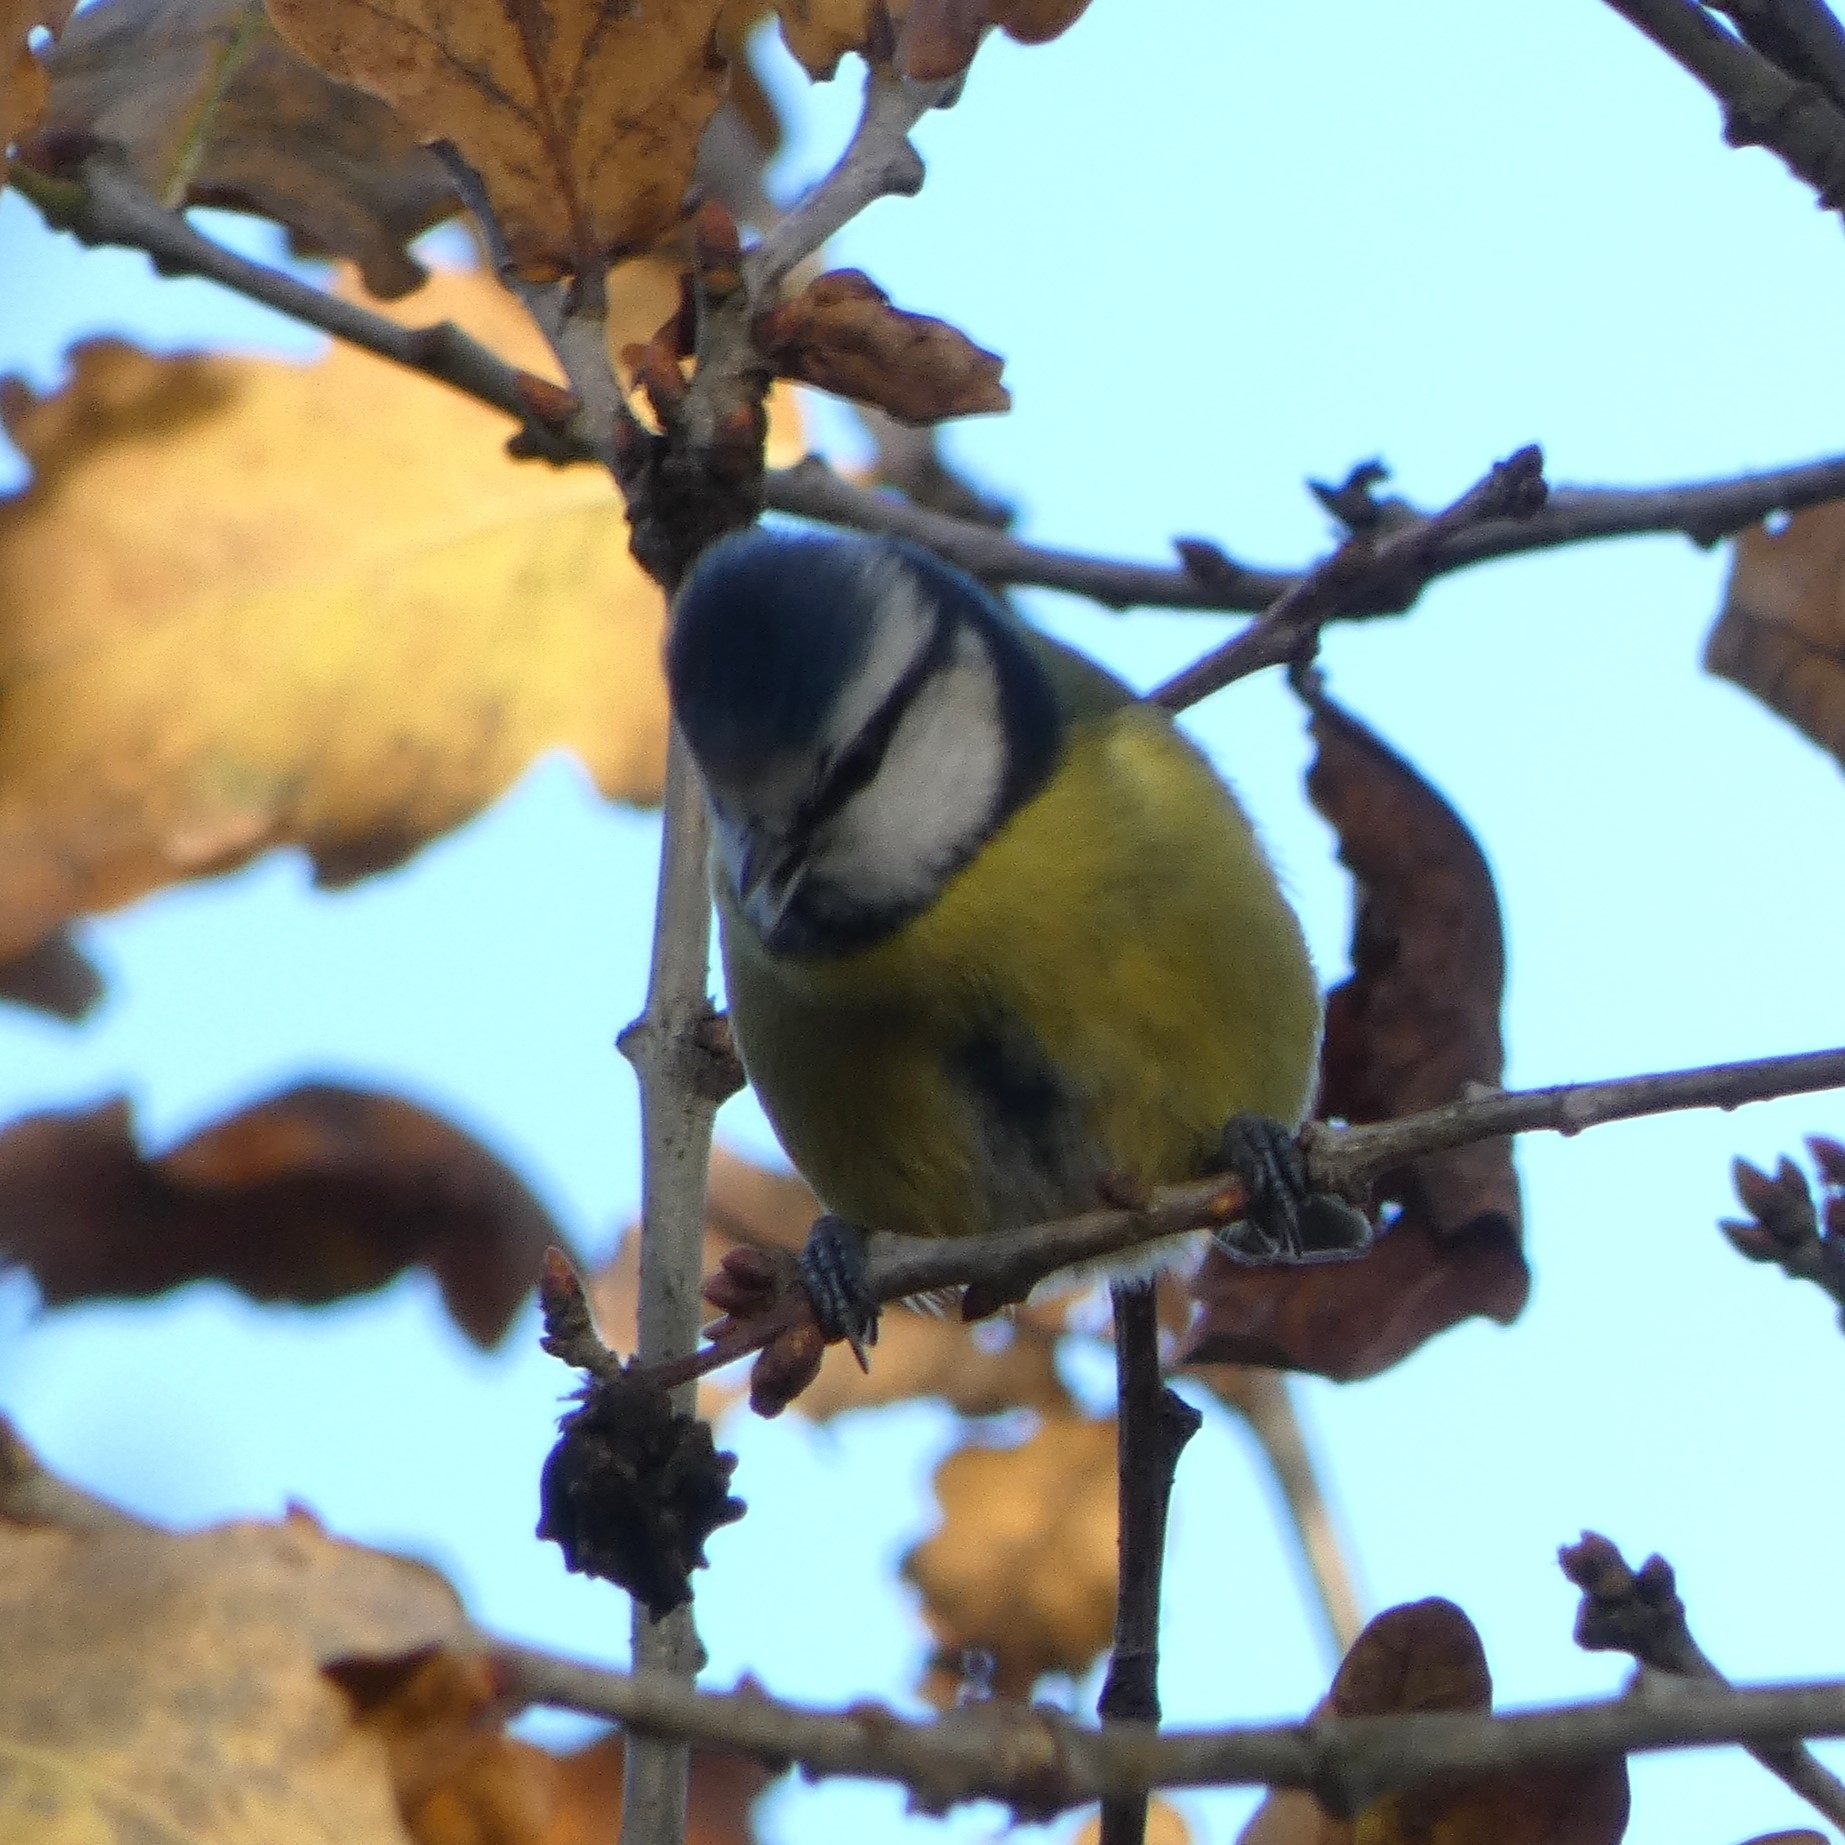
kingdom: Animalia
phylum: Chordata
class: Aves
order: Passeriformes
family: Paridae
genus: Cyanistes
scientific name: Cyanistes caeruleus
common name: Eurasian blue tit
